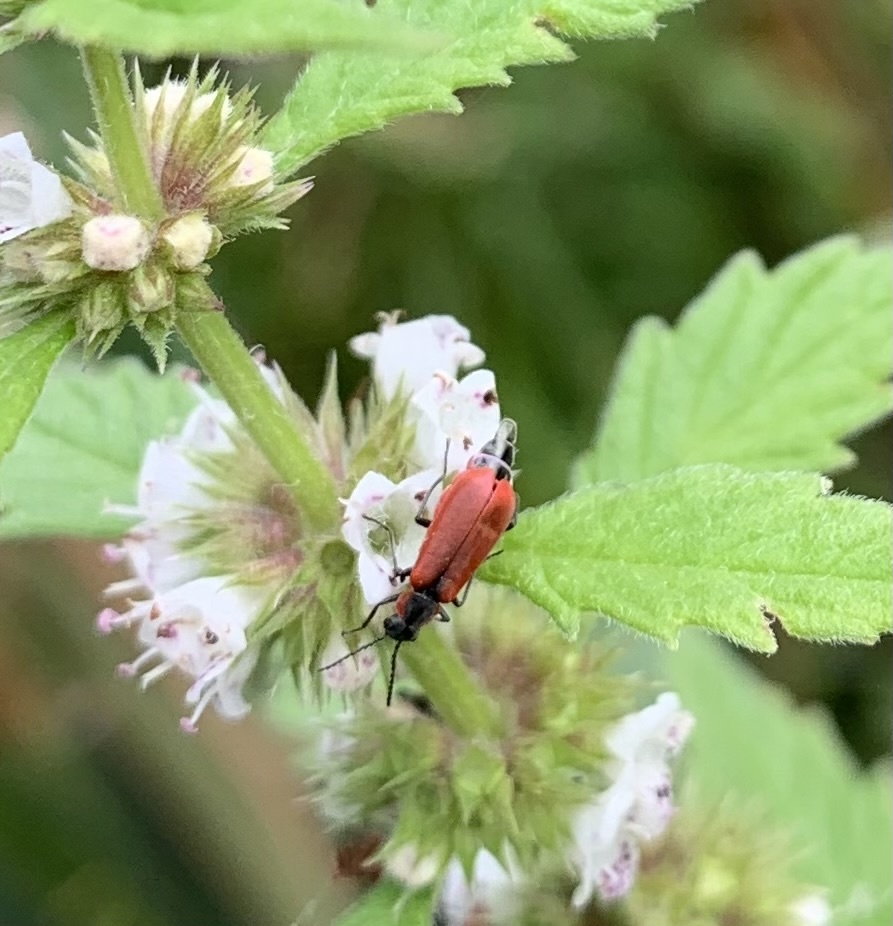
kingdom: Animalia
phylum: Arthropoda
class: Insecta
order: Coleoptera
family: Melyridae
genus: Anthocomus
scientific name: Anthocomus rufus
